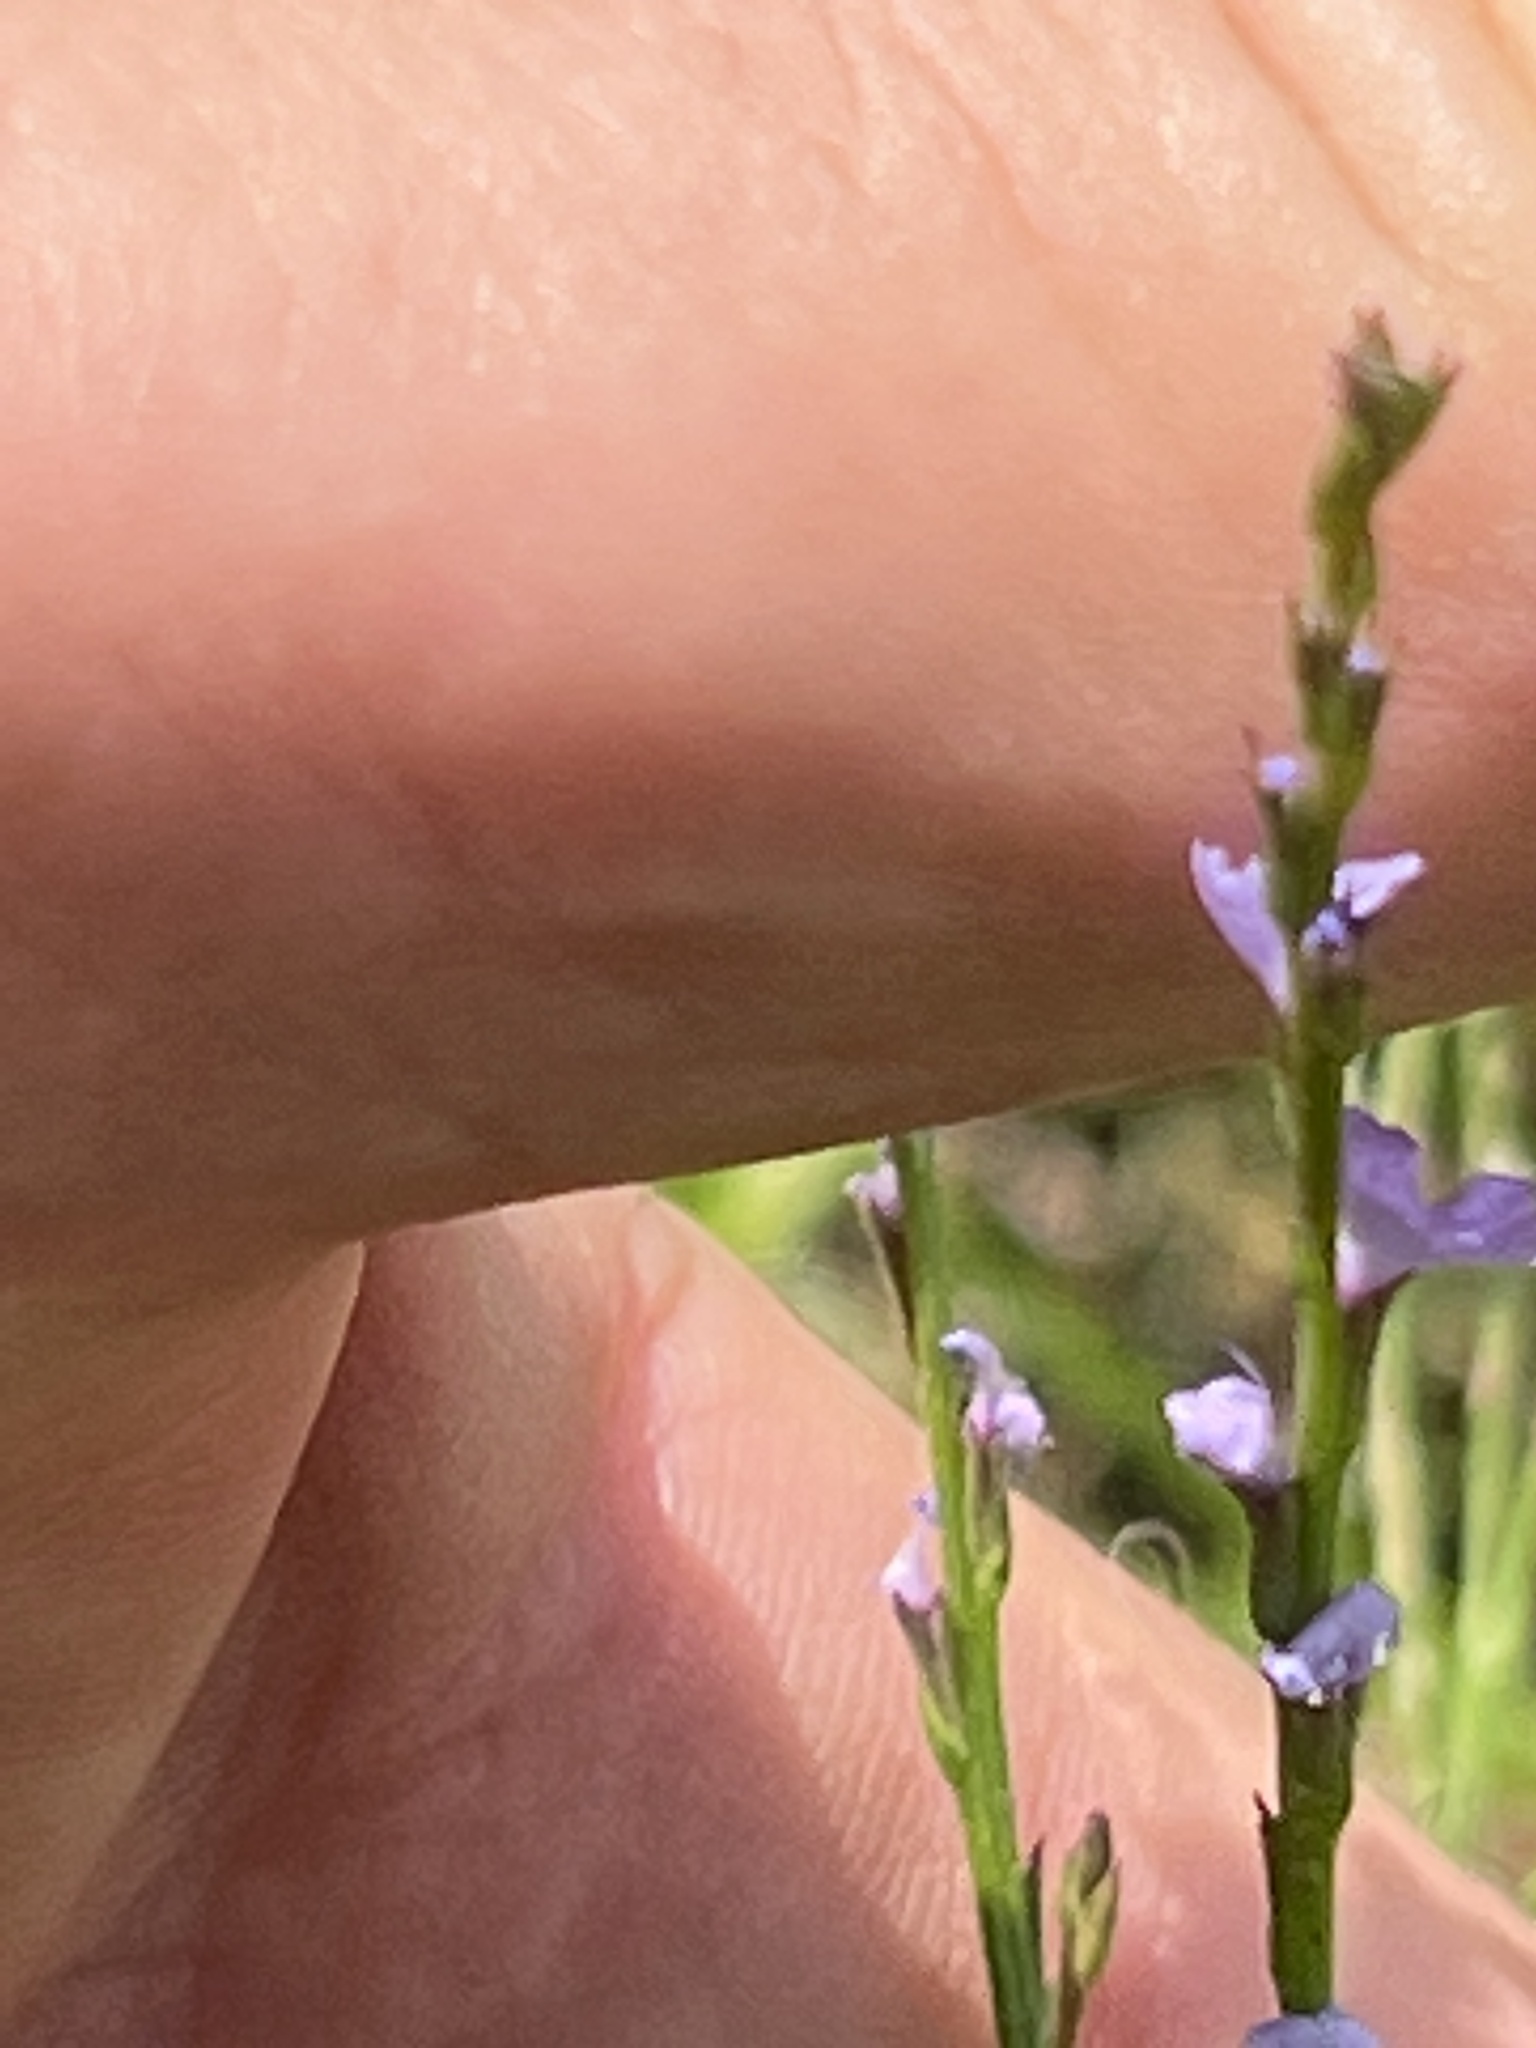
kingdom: Plantae
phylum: Tracheophyta
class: Magnoliopsida
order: Lamiales
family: Verbenaceae
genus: Verbena
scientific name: Verbena halei
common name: Texas vervain
